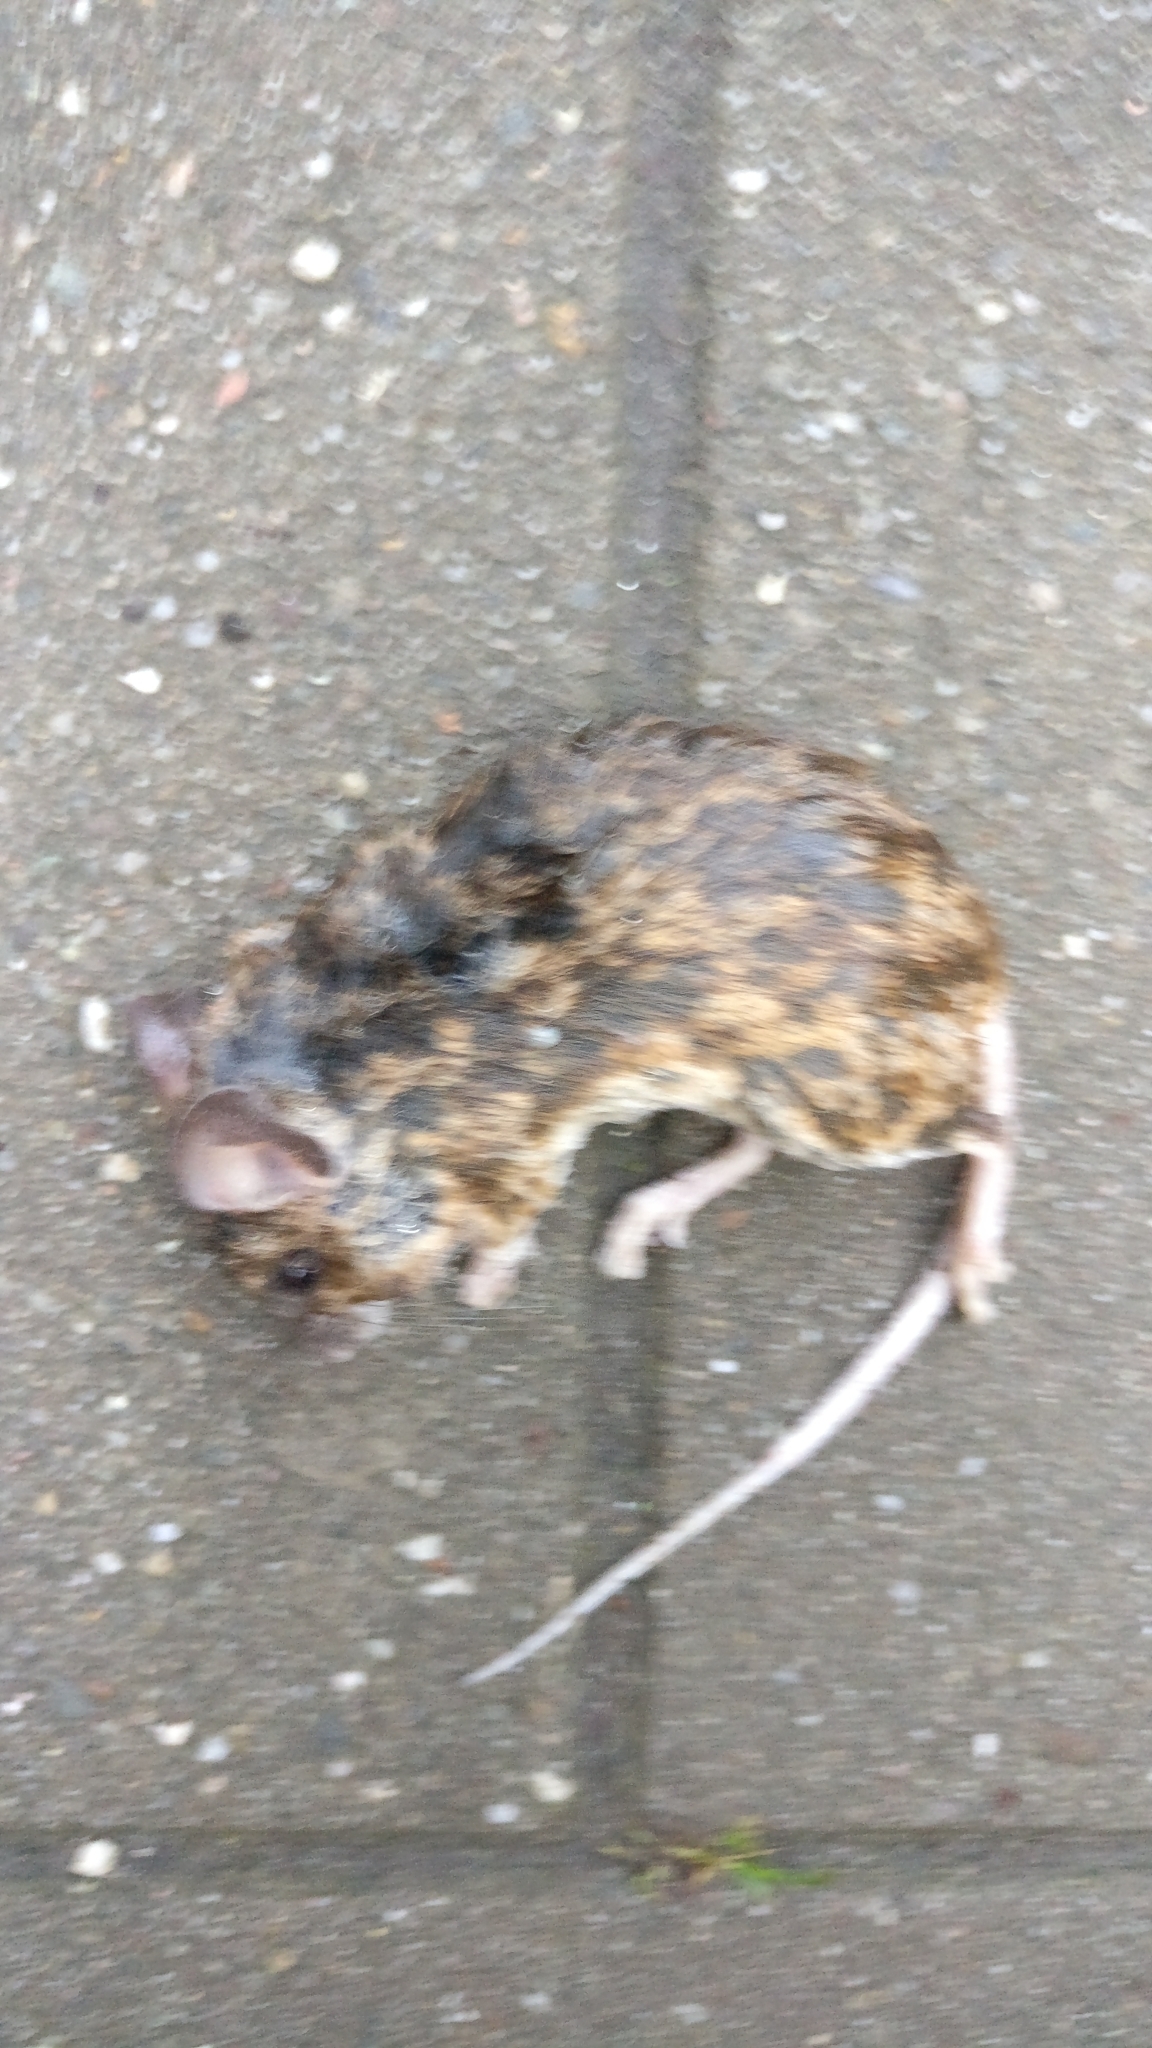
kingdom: Animalia
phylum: Chordata
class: Mammalia
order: Rodentia
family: Muridae
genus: Apodemus
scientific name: Apodemus sylvaticus
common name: Wood mouse
